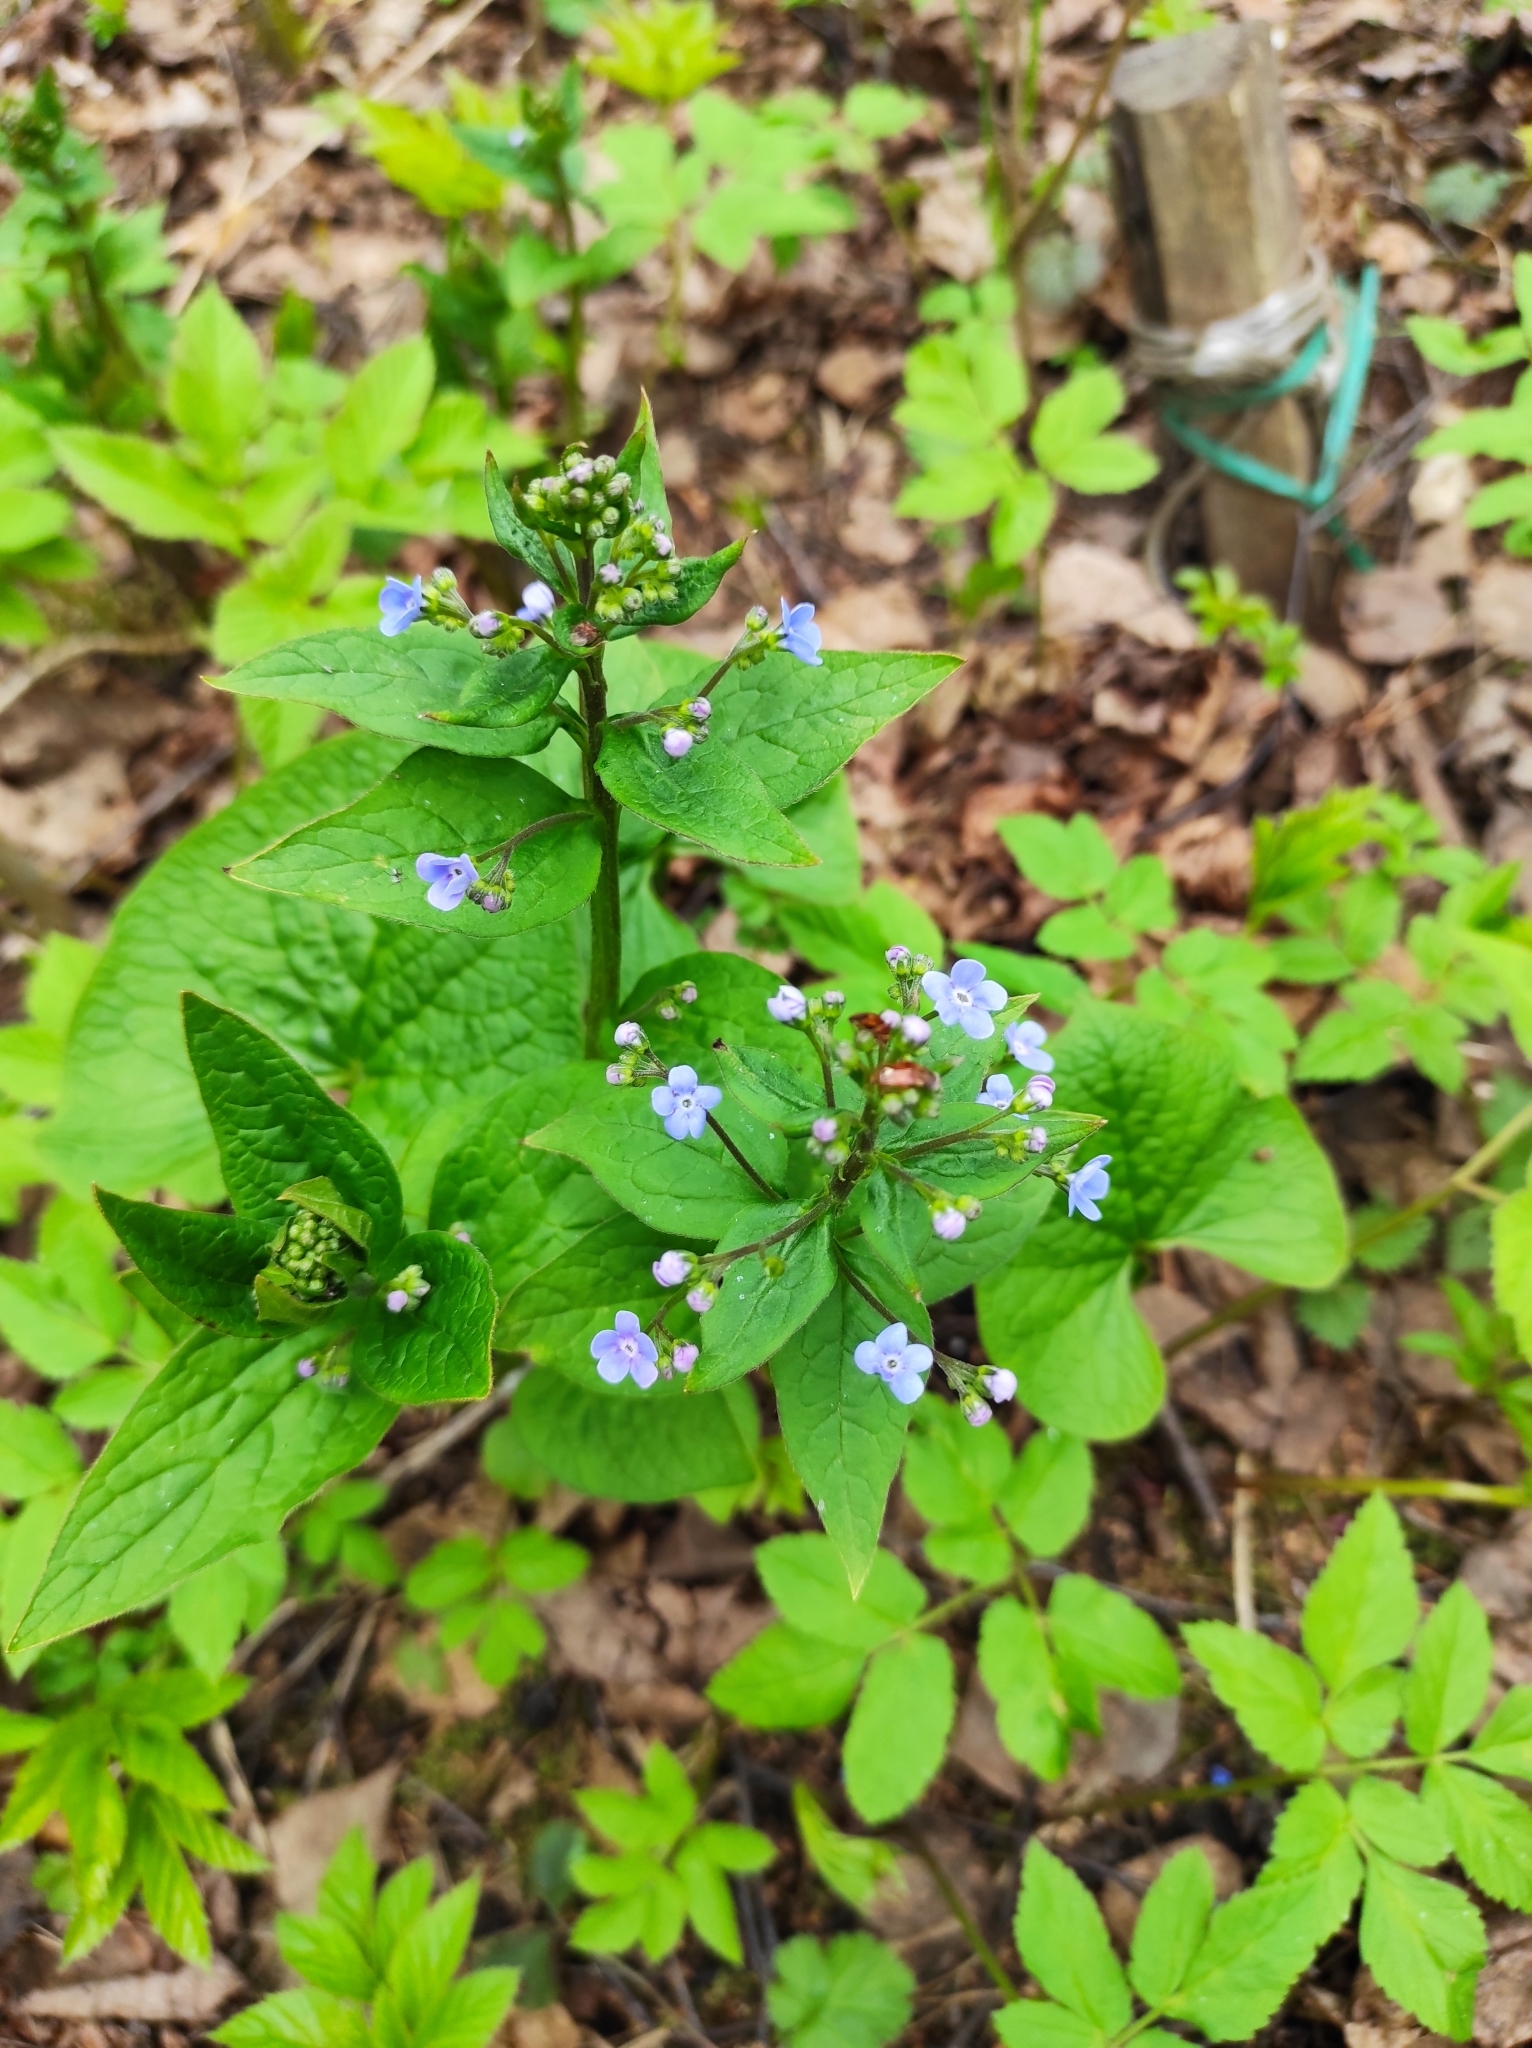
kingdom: Plantae
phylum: Tracheophyta
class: Magnoliopsida
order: Boraginales
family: Boraginaceae
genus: Brunnera
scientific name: Brunnera sibirica
